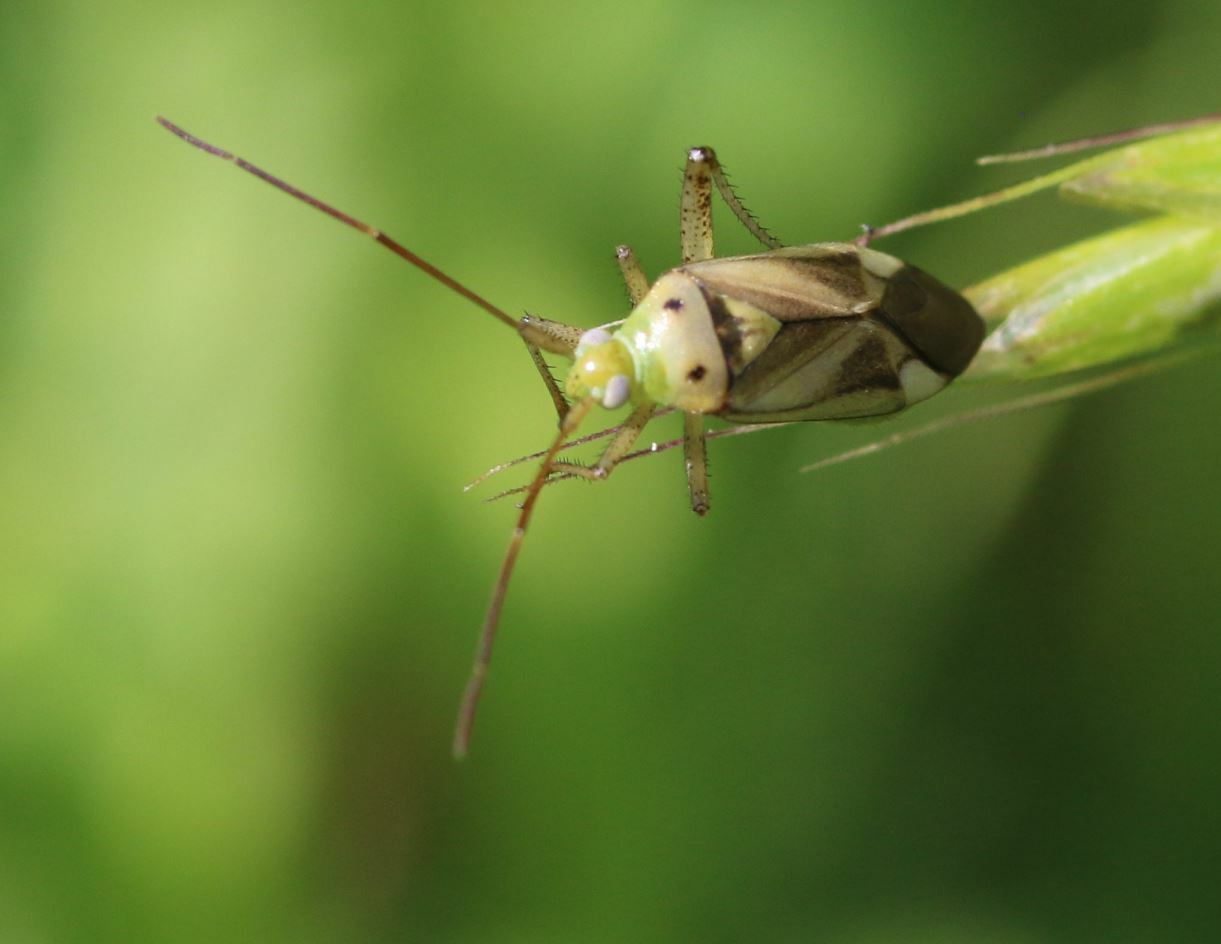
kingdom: Animalia
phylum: Arthropoda
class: Insecta
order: Hemiptera
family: Miridae
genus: Adelphocoris
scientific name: Adelphocoris lineolatus
